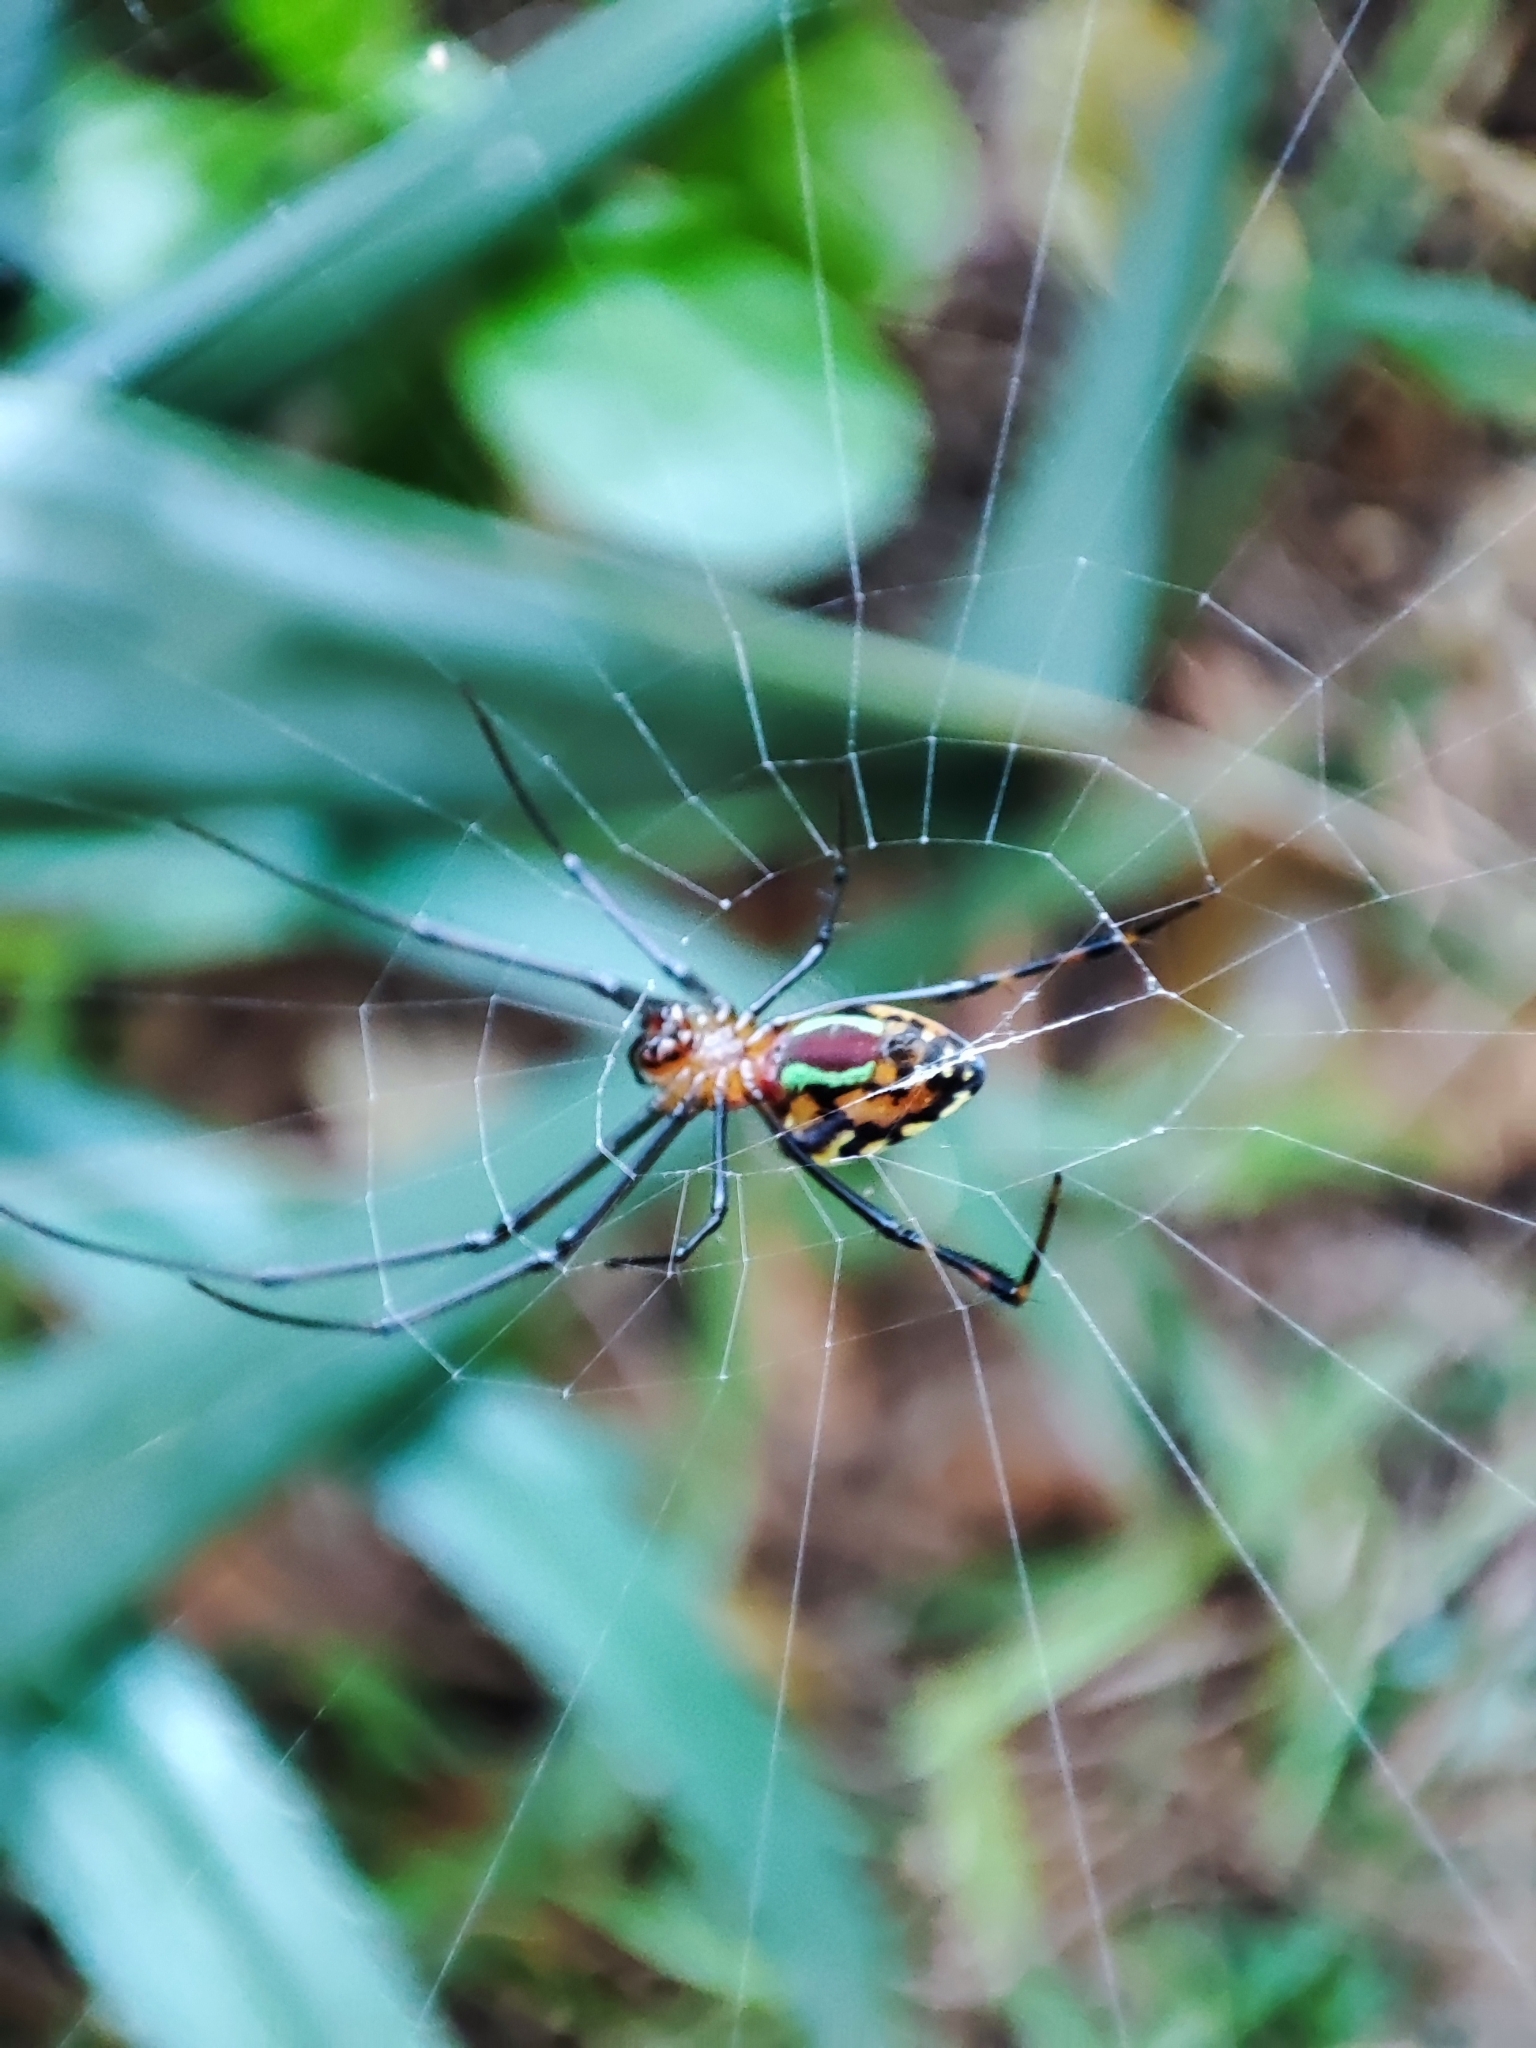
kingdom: Animalia
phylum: Arthropoda
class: Arachnida
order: Araneae
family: Tetragnathidae
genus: Leucauge
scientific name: Leucauge tessellata
